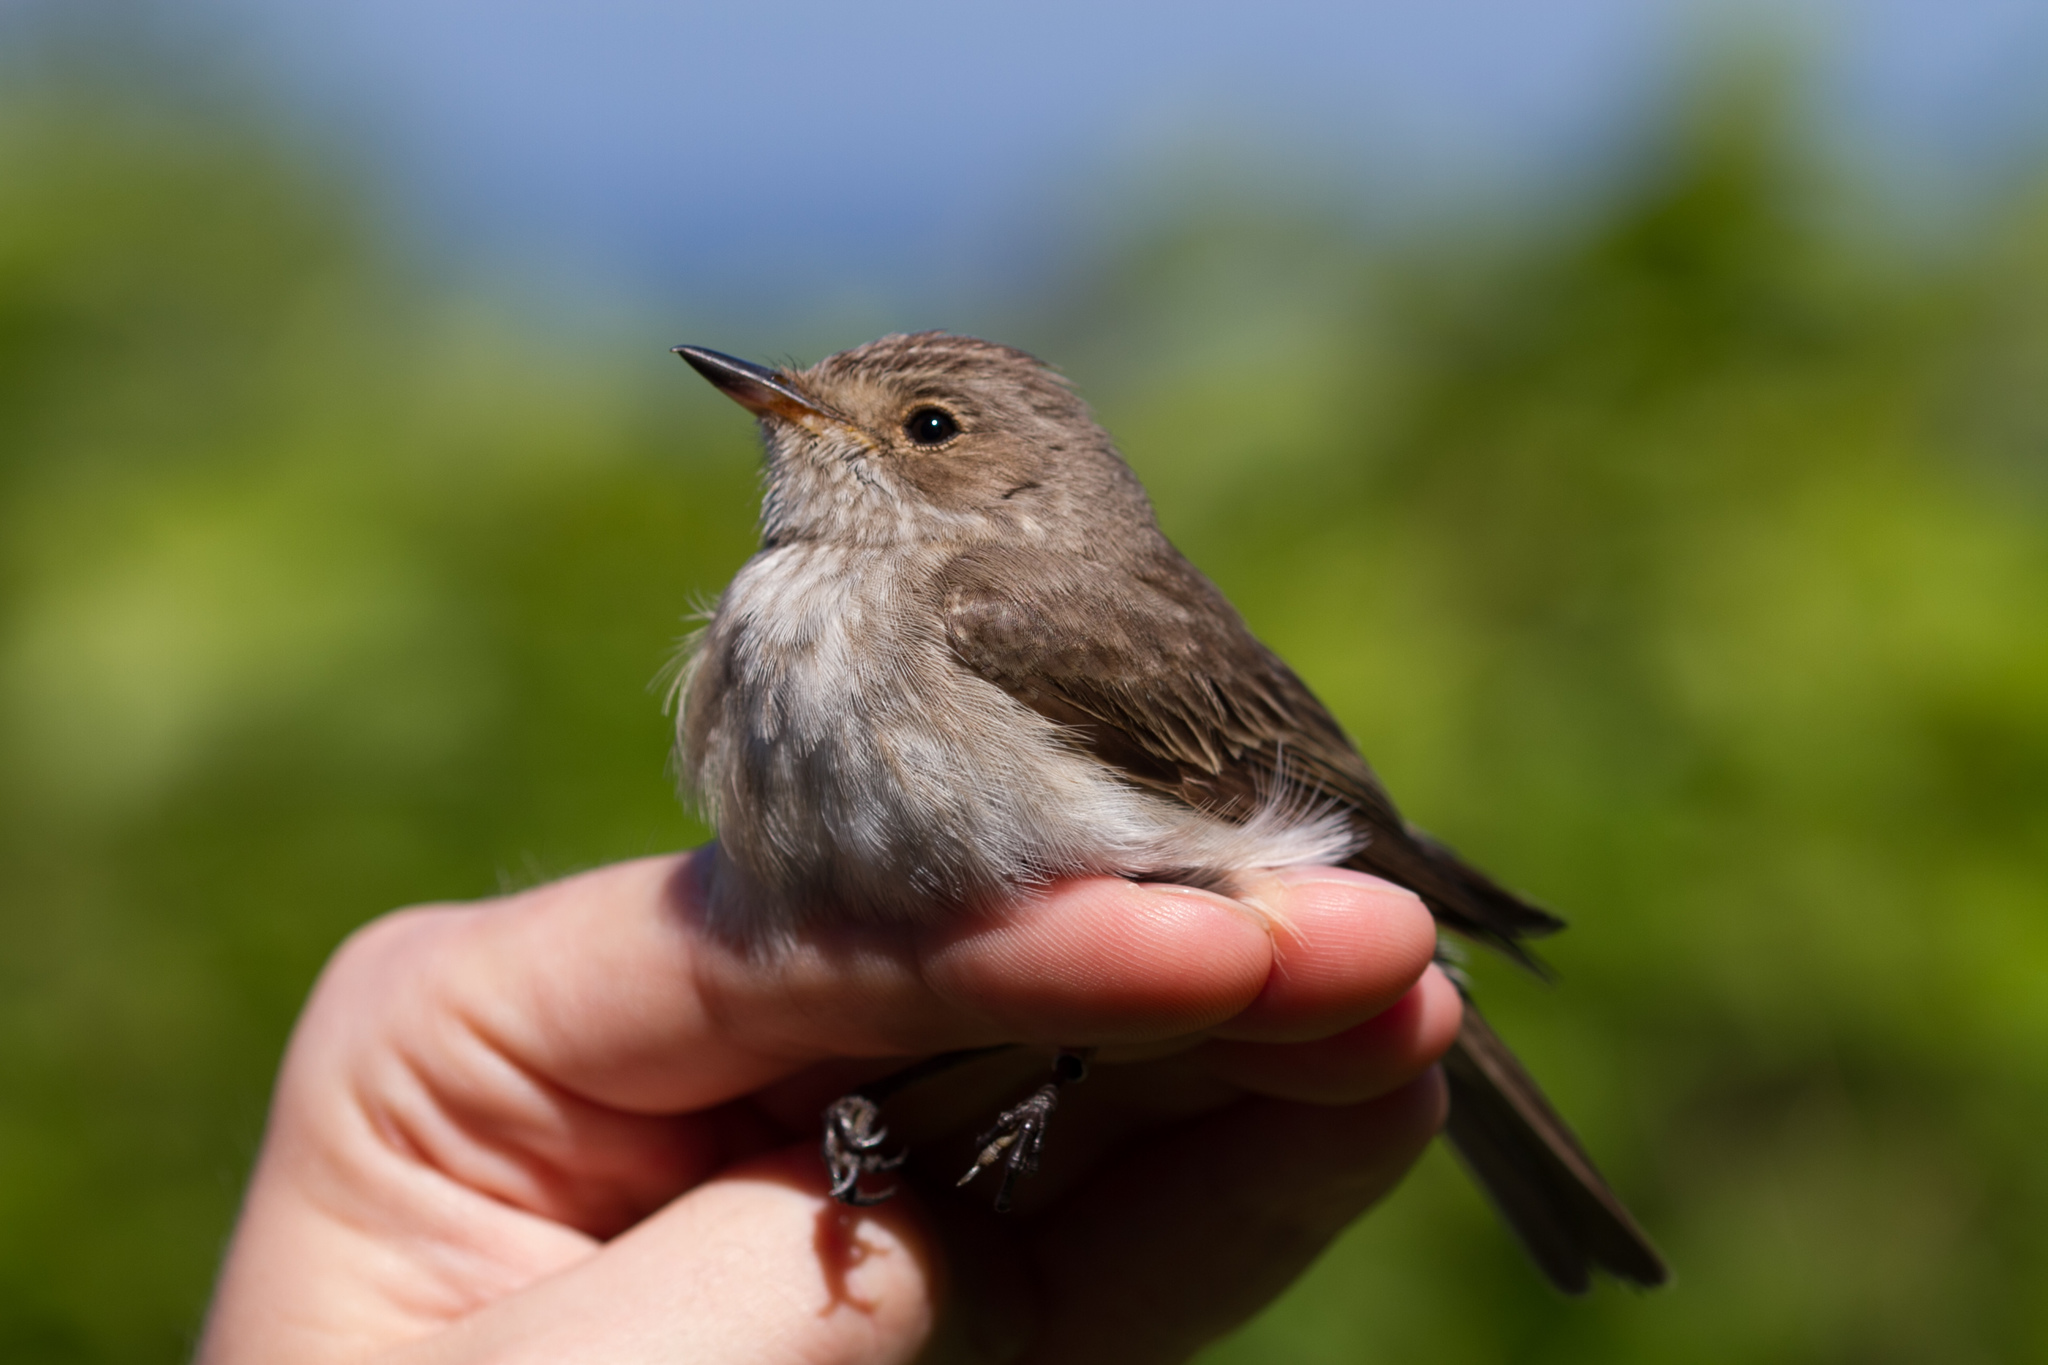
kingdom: Animalia
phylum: Chordata
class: Aves
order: Passeriformes
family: Muscicapidae
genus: Muscicapa
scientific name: Muscicapa striata
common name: Spotted flycatcher
